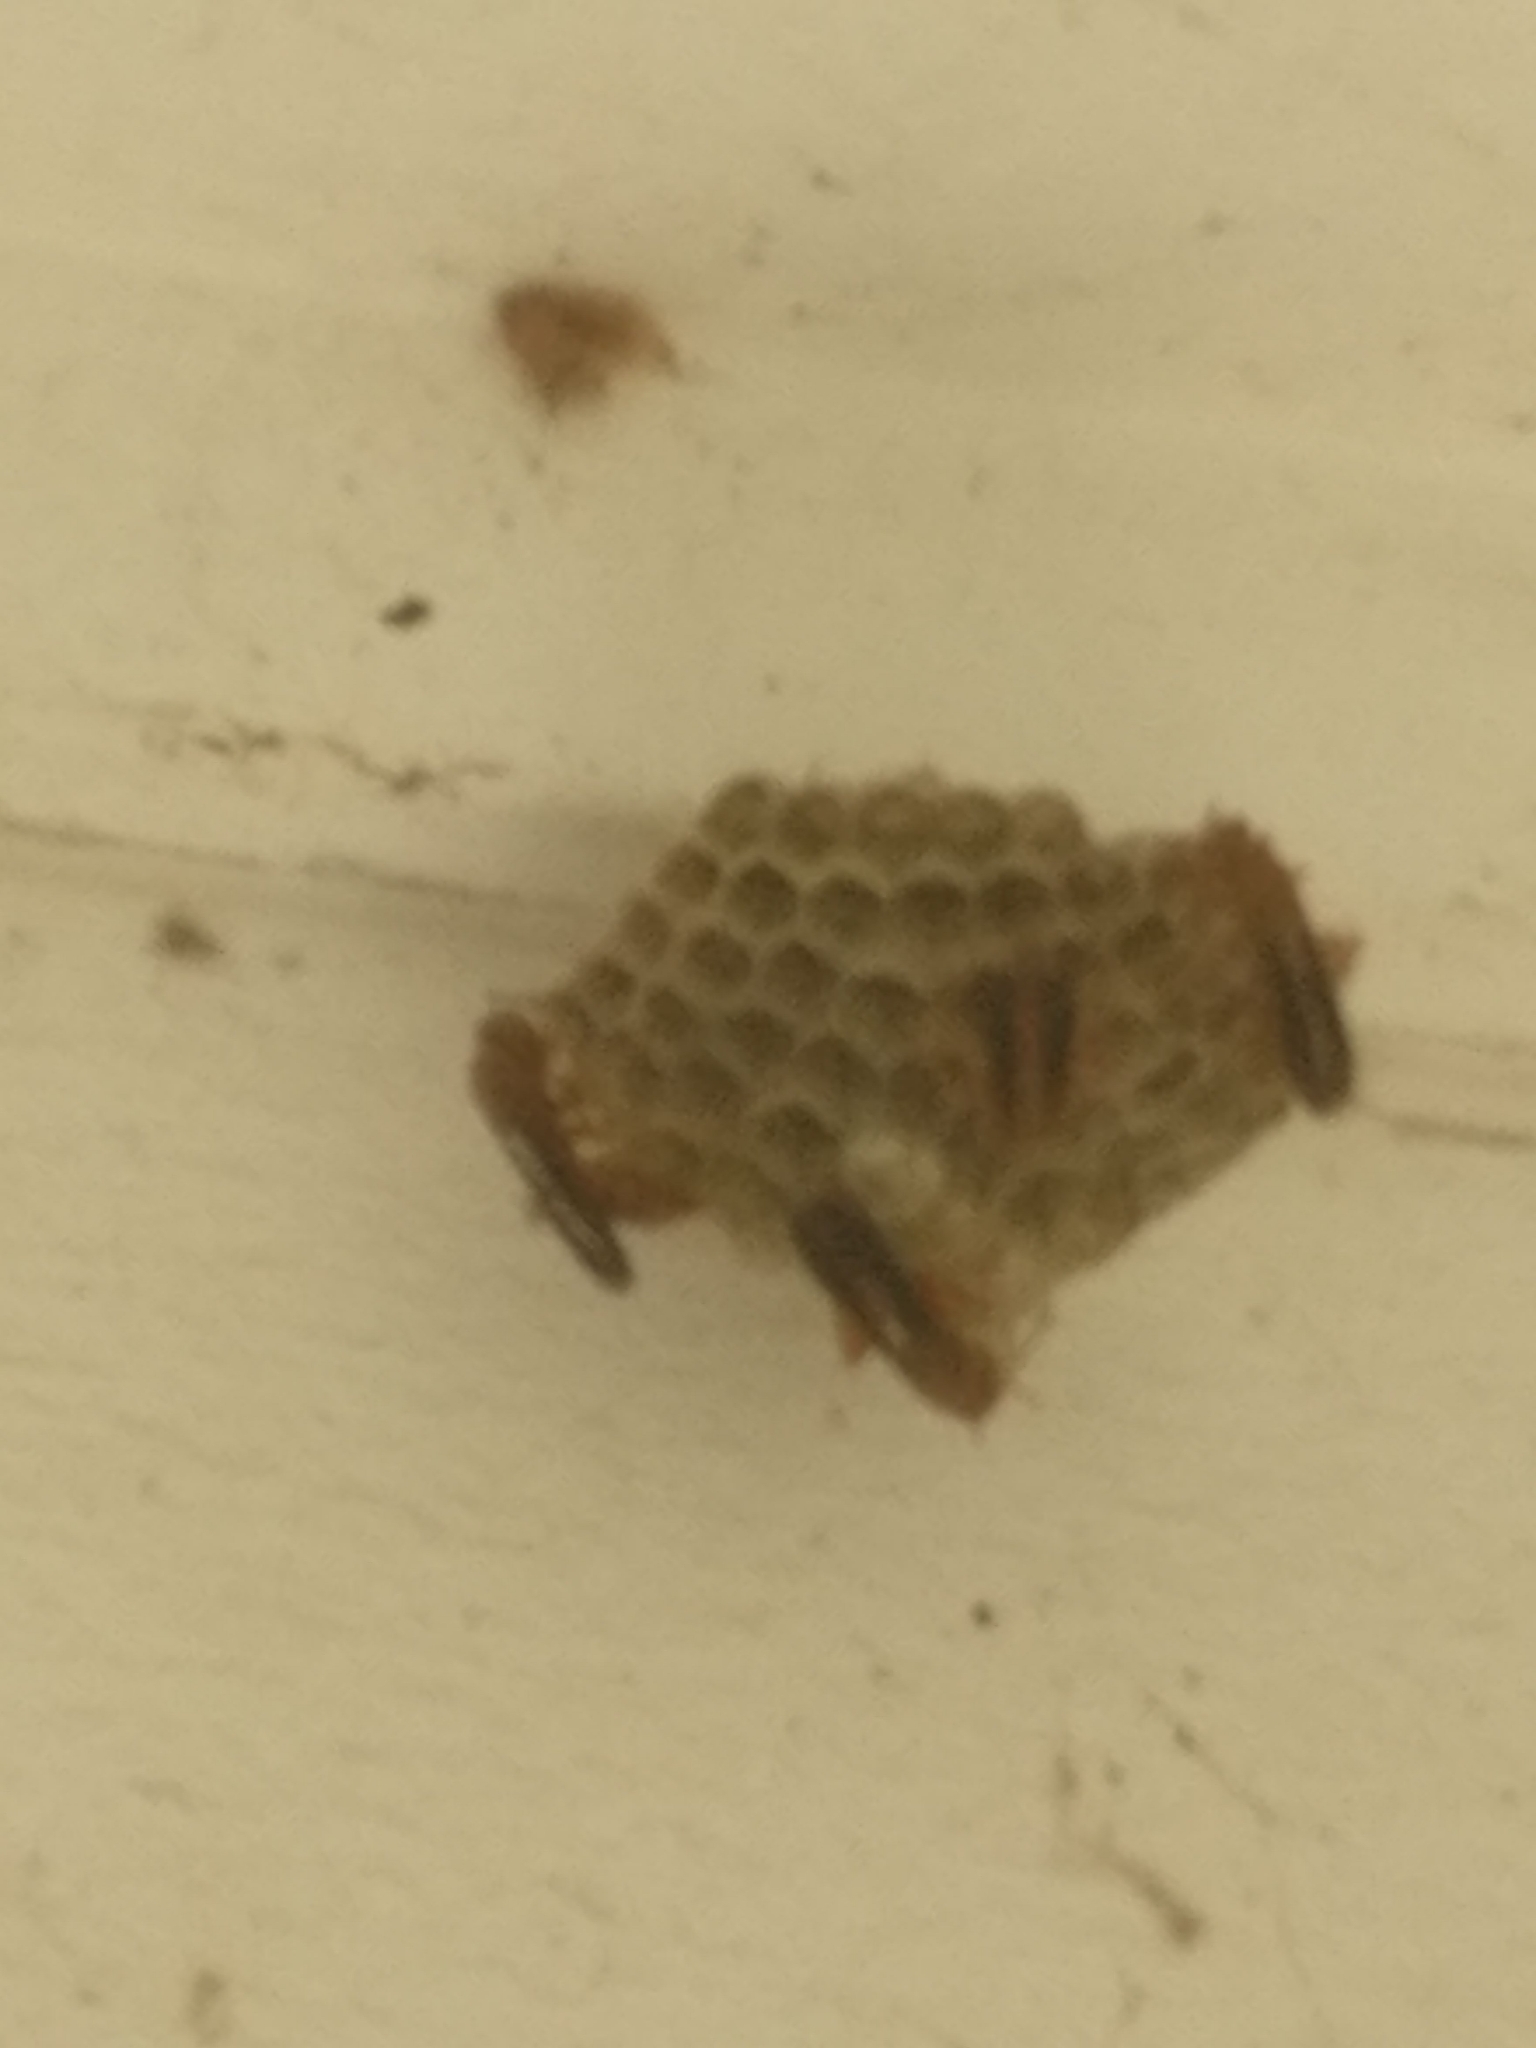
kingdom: Animalia
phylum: Arthropoda
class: Insecta
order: Hymenoptera
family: Vespidae
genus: Fuscopolistes
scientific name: Fuscopolistes
